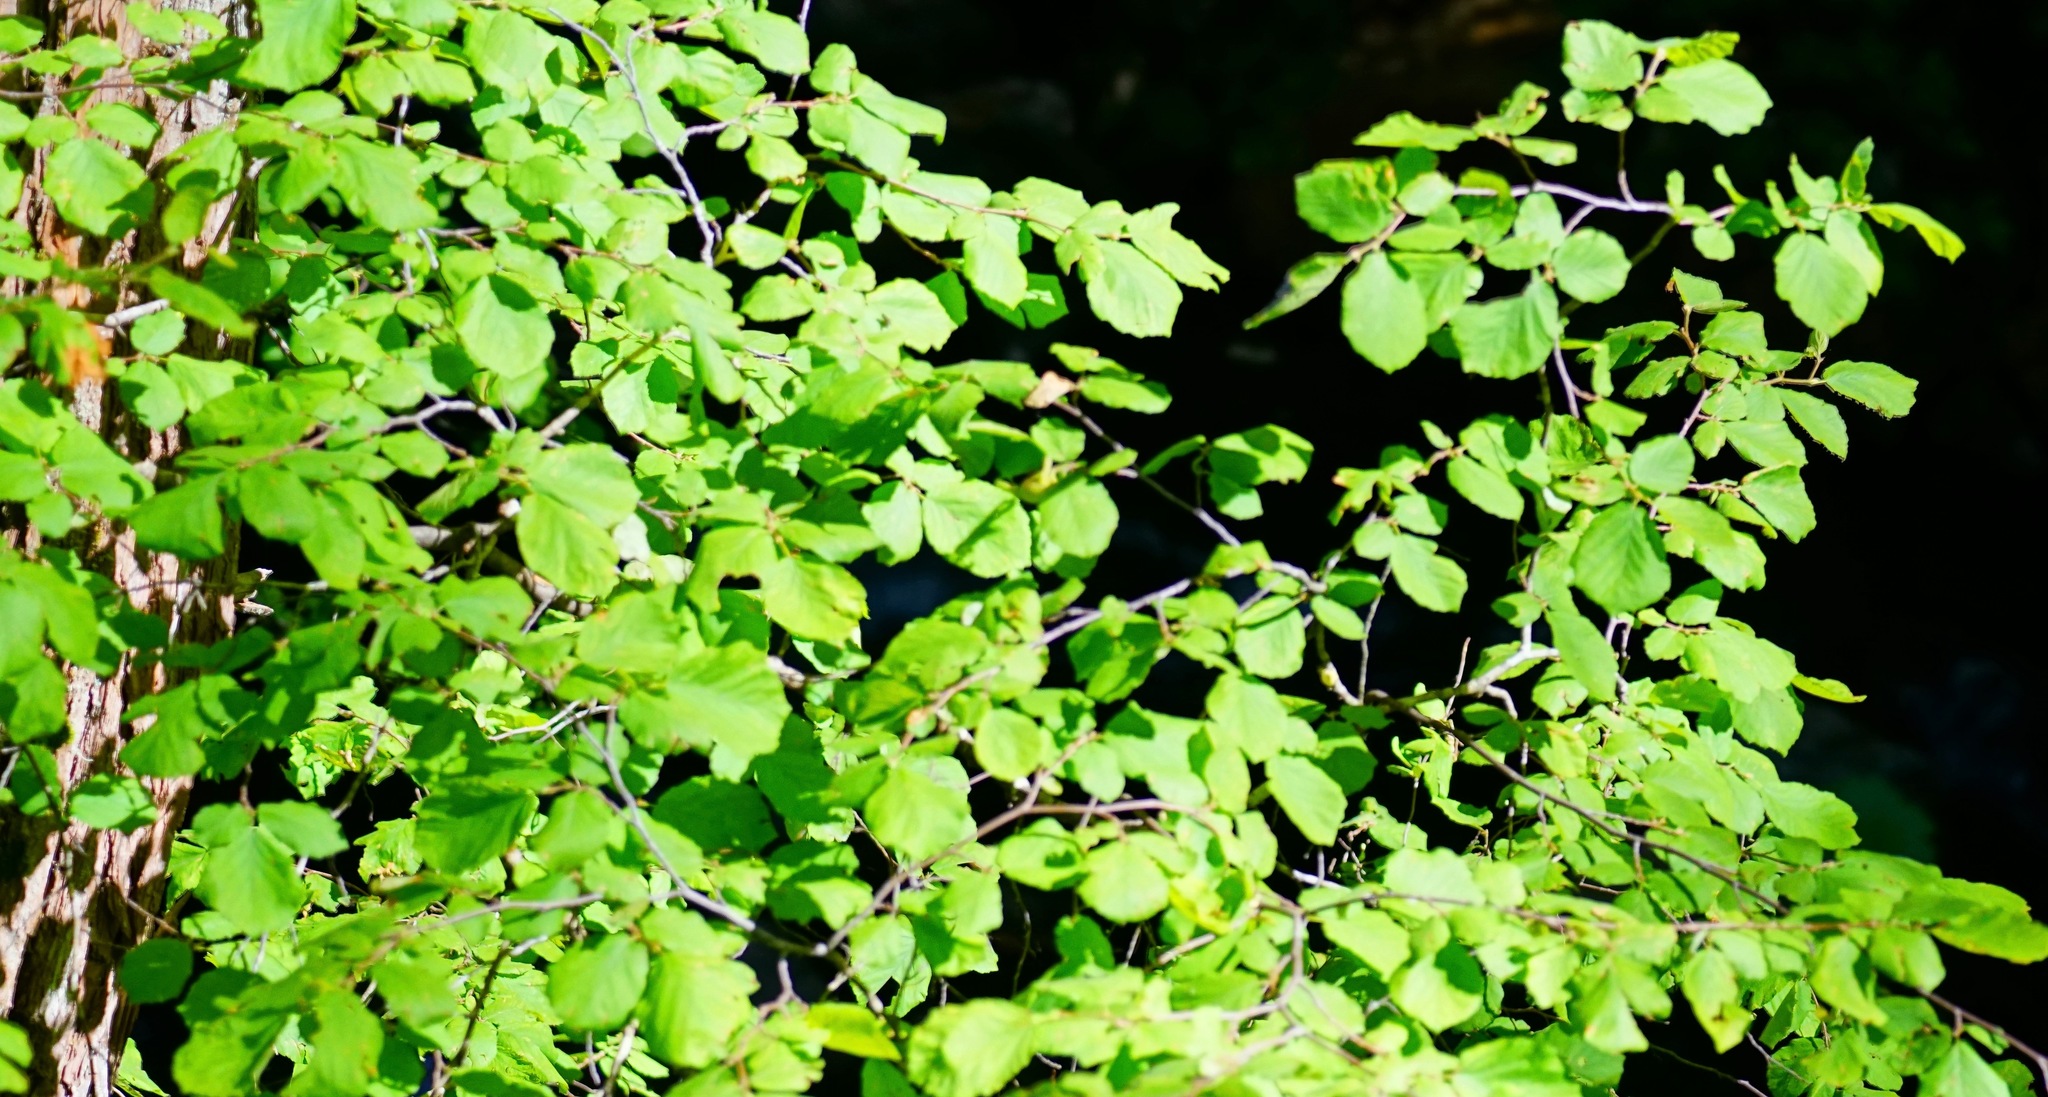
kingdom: Plantae
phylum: Tracheophyta
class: Magnoliopsida
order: Fagales
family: Betulaceae
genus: Corylus
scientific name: Corylus cornuta
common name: Beaked hazel
